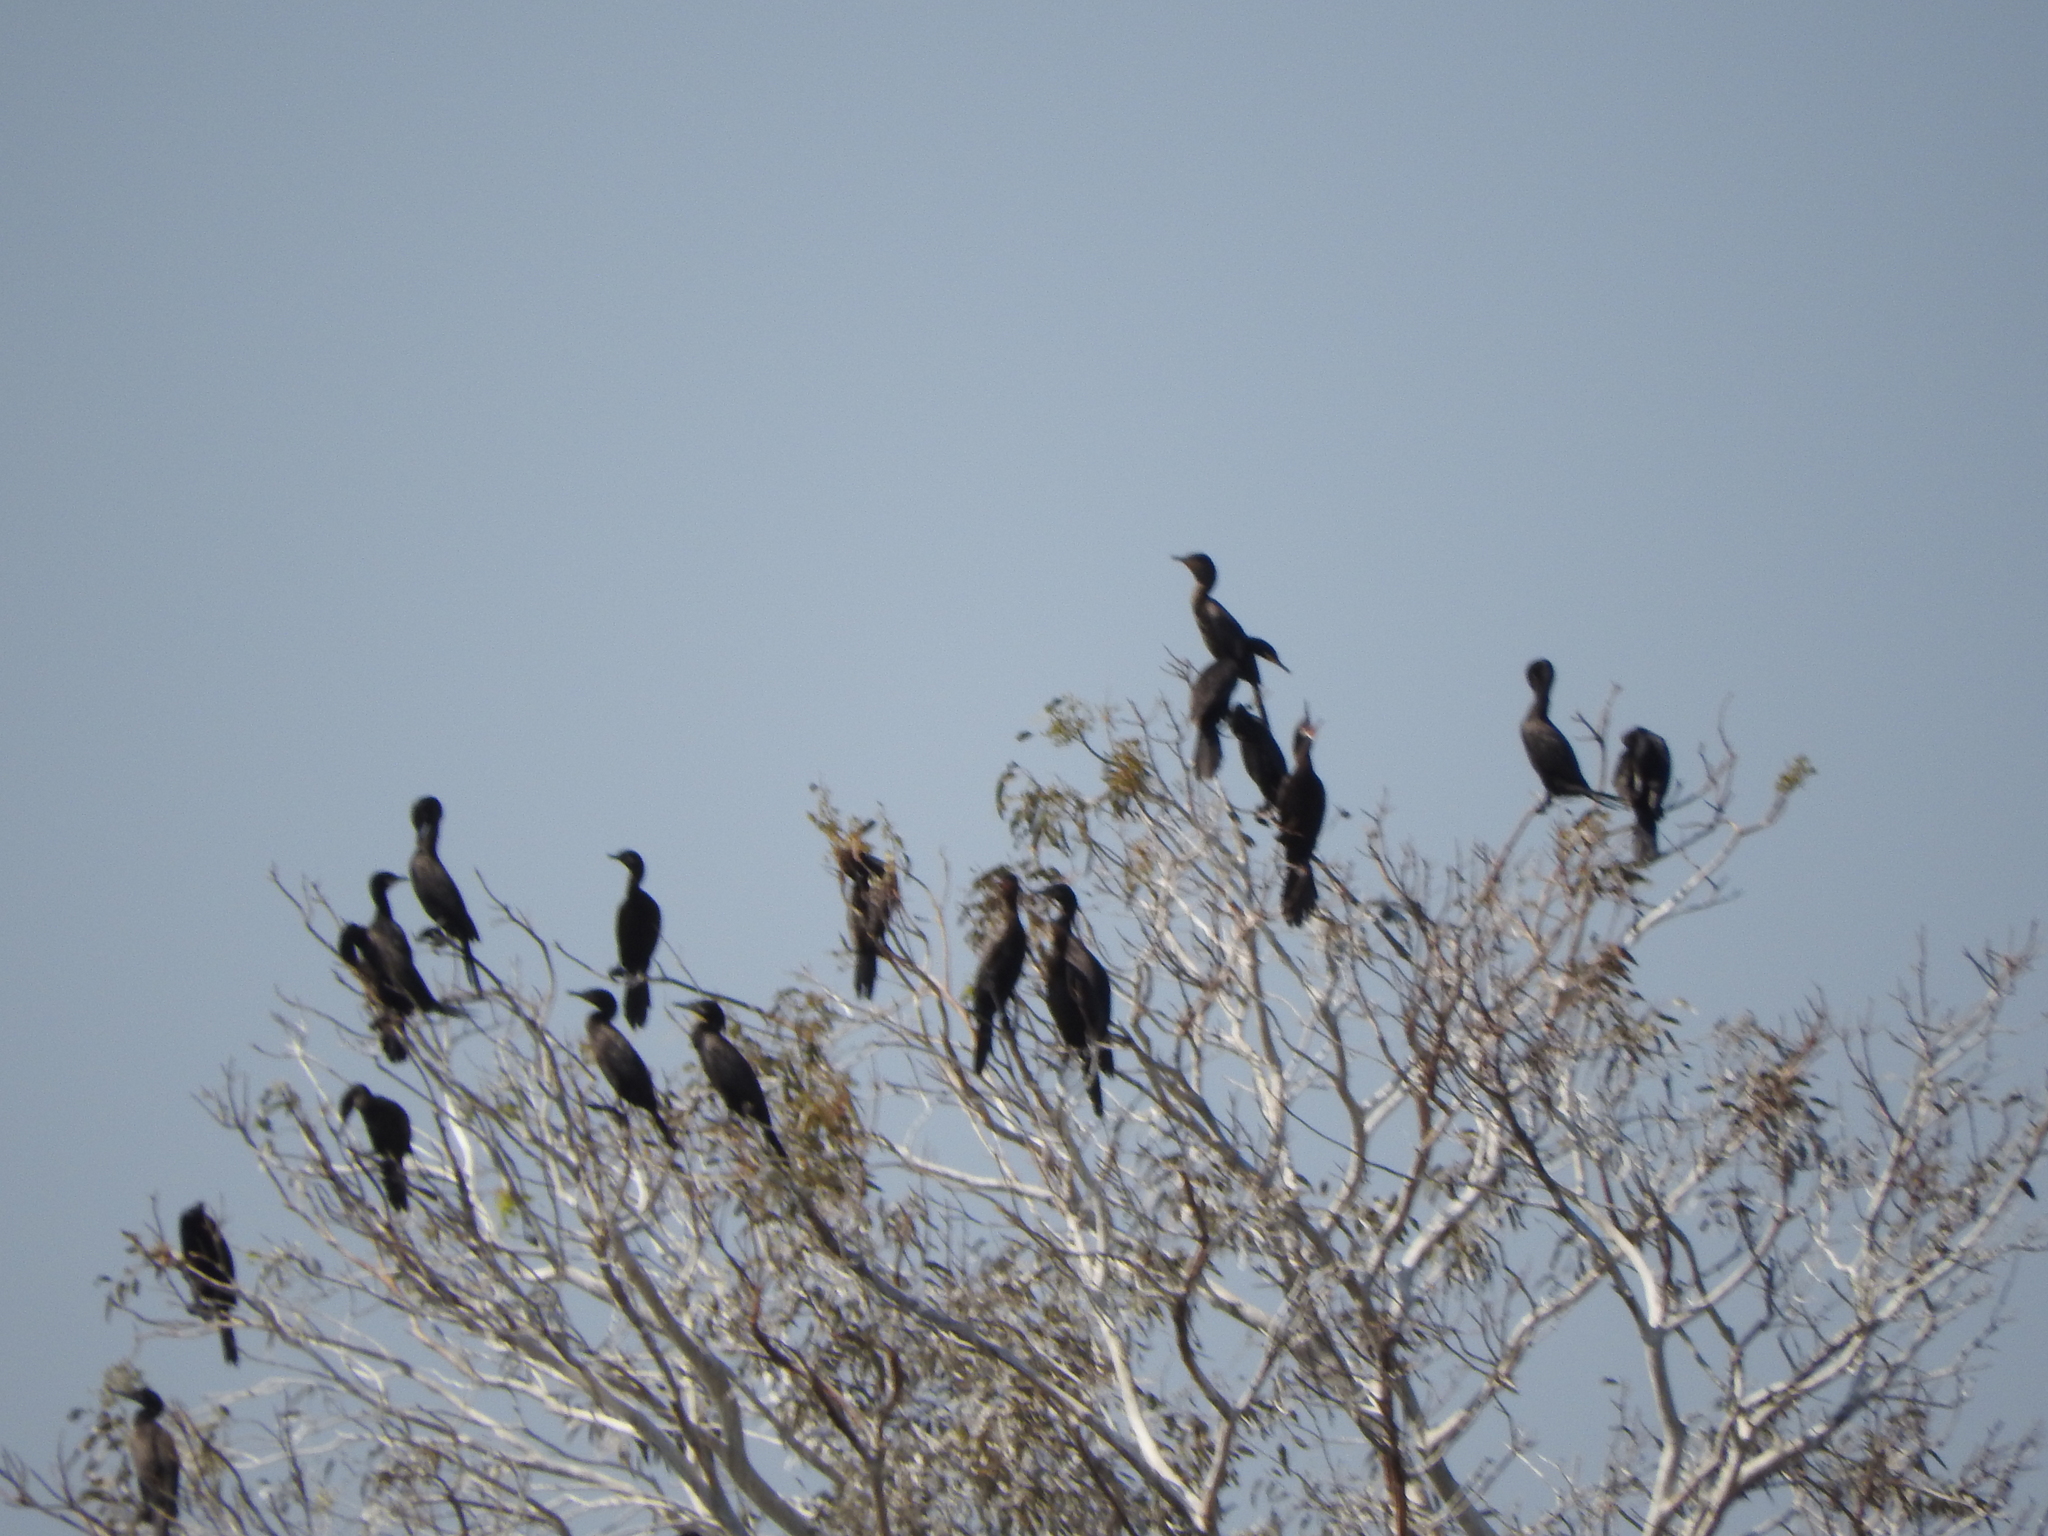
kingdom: Animalia
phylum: Chordata
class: Aves
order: Suliformes
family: Phalacrocoracidae
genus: Phalacrocorax
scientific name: Phalacrocorax brasilianus
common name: Neotropic cormorant
